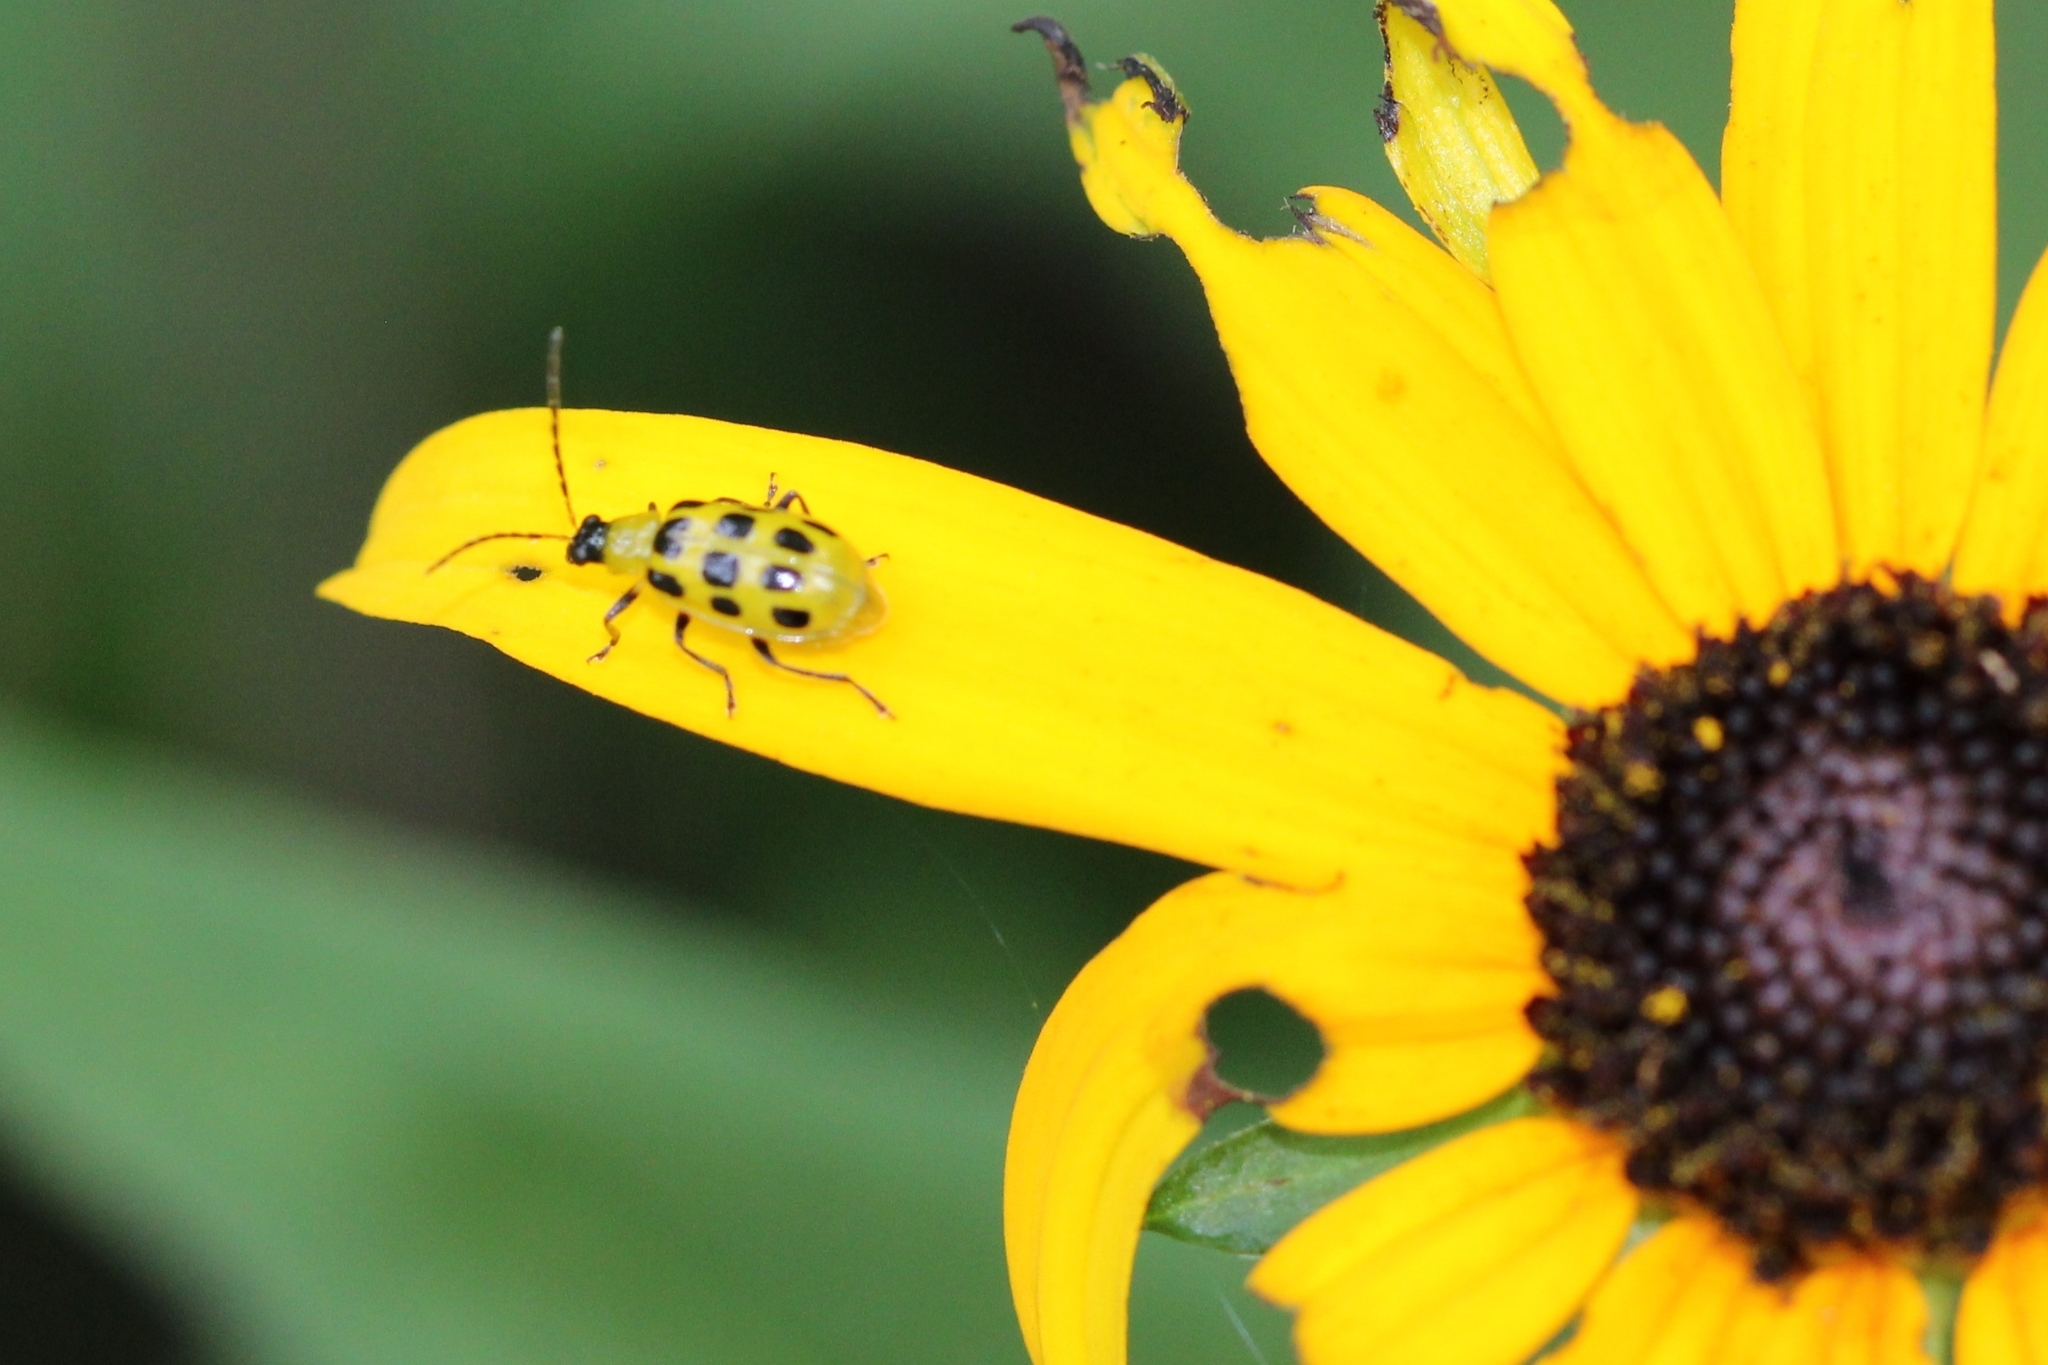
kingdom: Animalia
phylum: Arthropoda
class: Insecta
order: Coleoptera
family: Chrysomelidae
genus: Diabrotica
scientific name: Diabrotica undecimpunctata
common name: Spotted cucumber beetle
